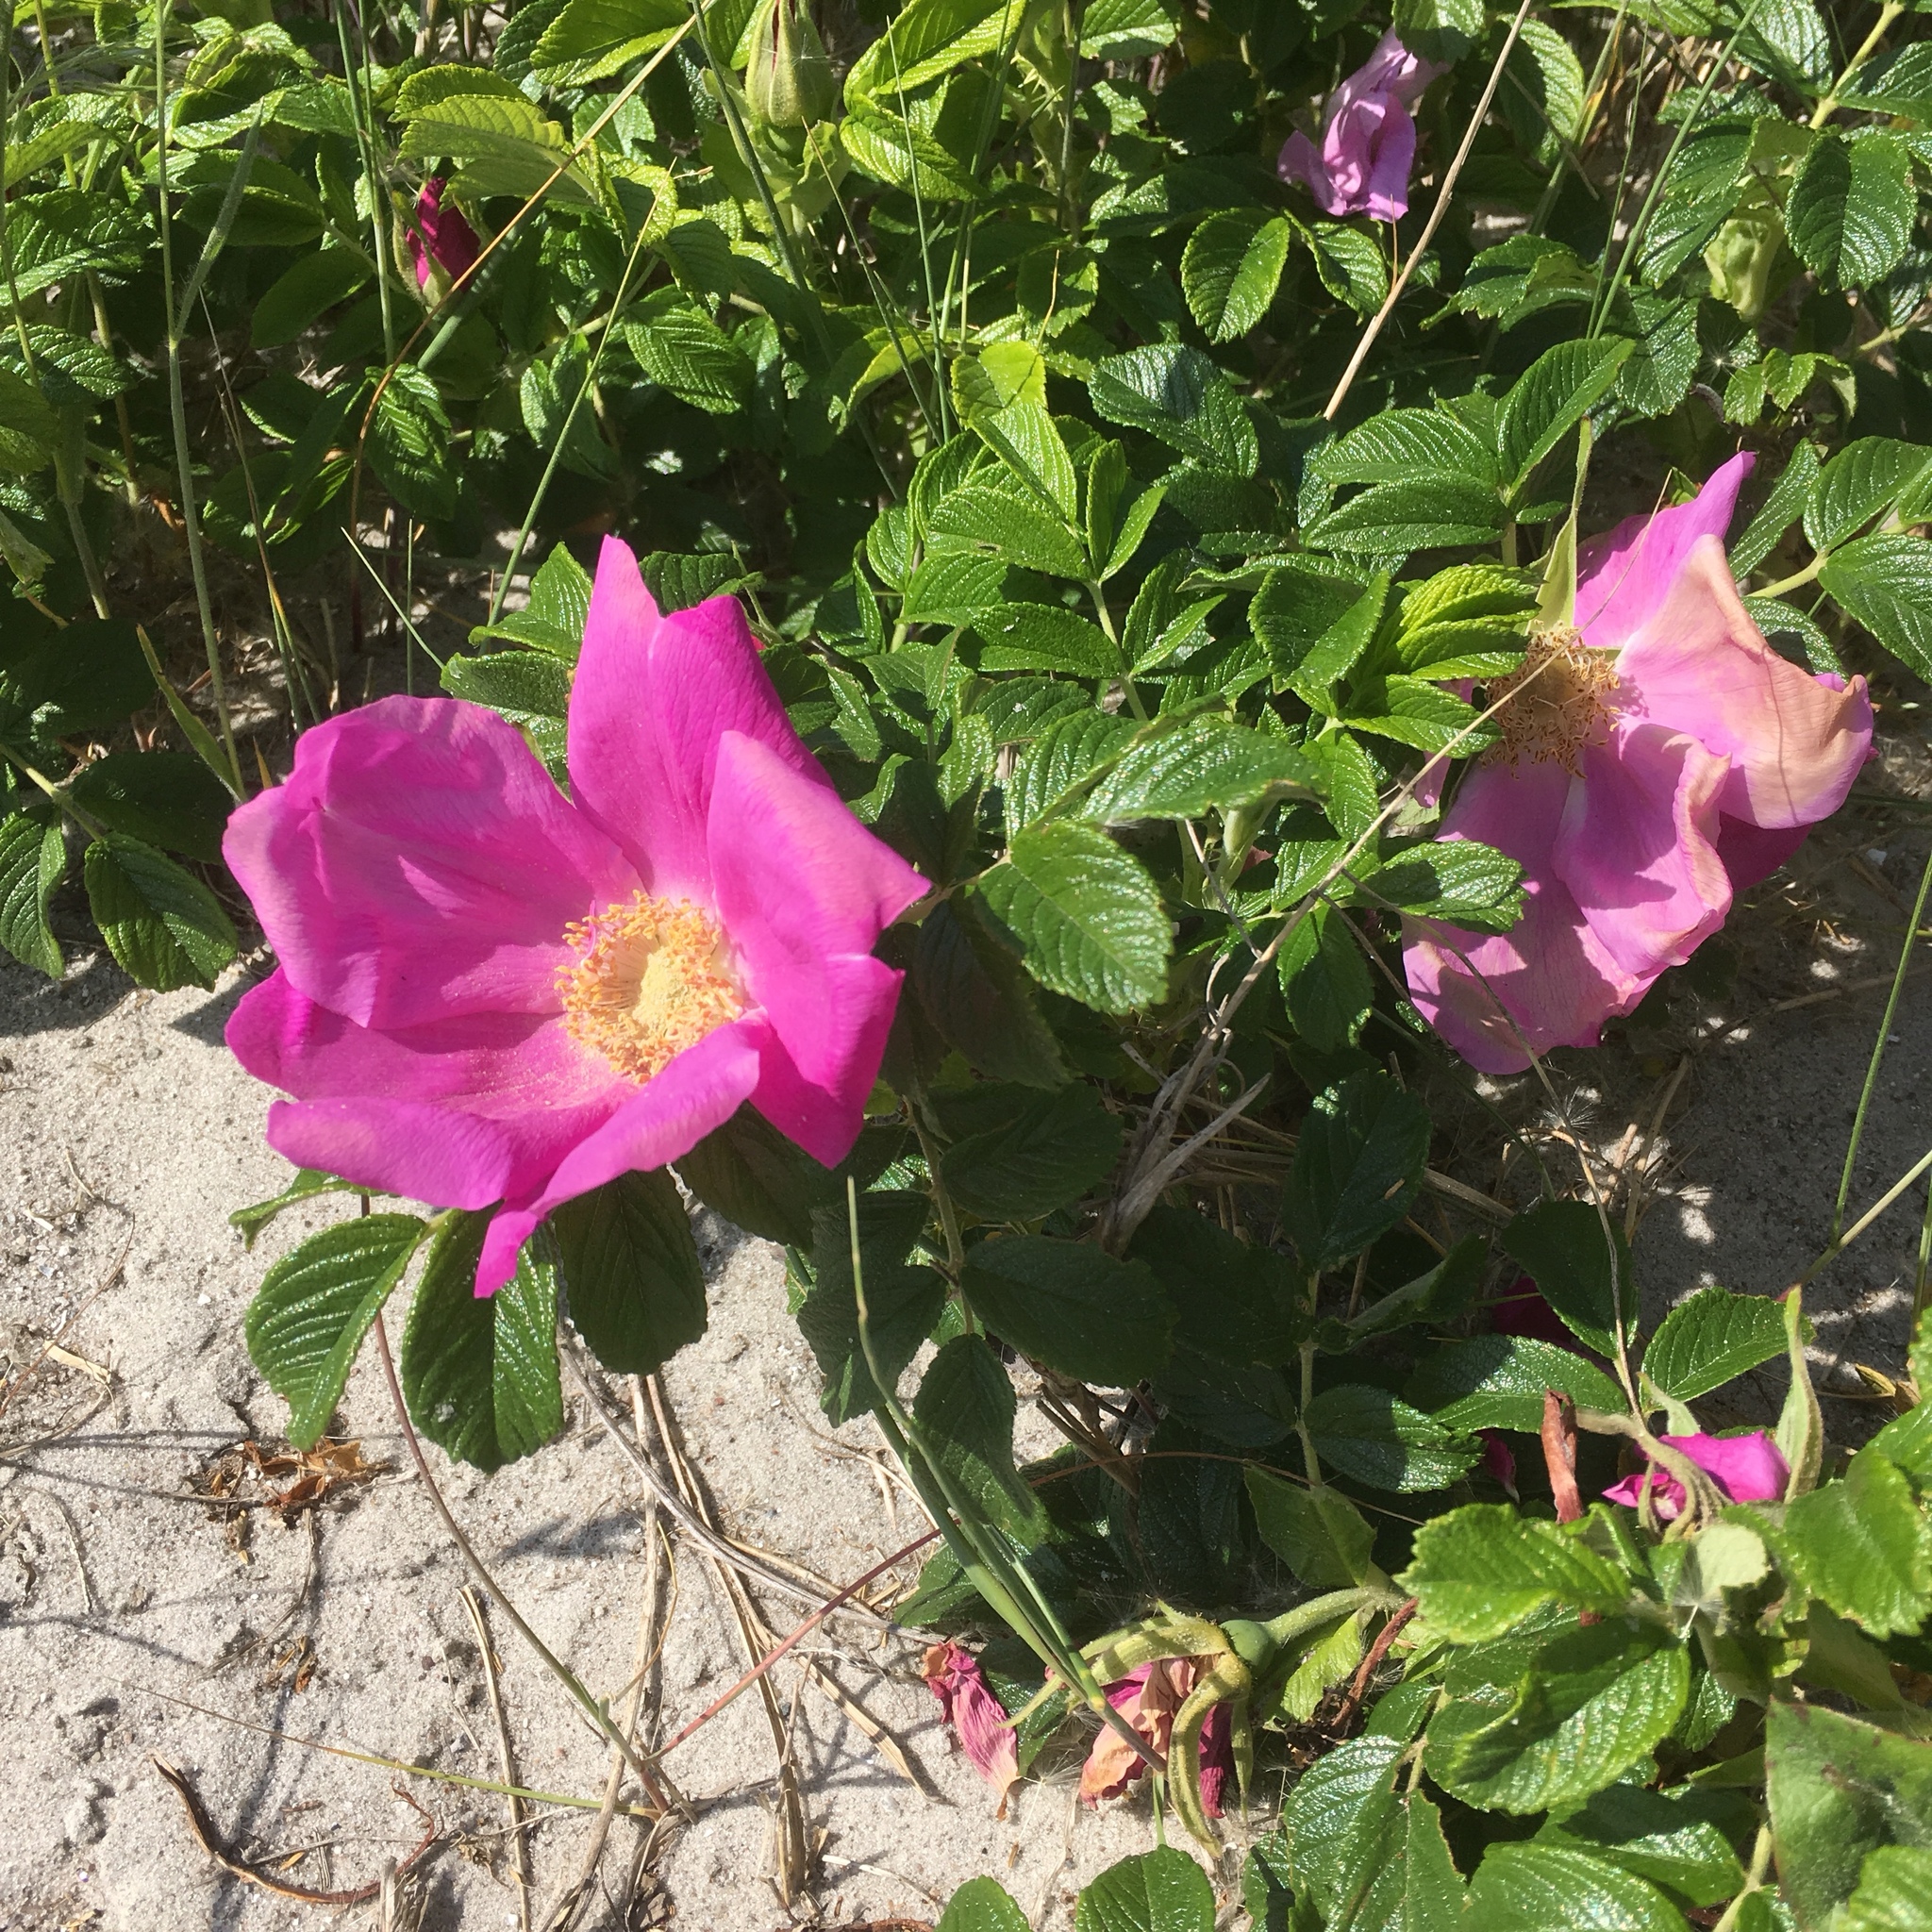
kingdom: Plantae
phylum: Tracheophyta
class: Magnoliopsida
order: Rosales
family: Rosaceae
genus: Rosa
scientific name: Rosa rugosa
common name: Japanese rose
